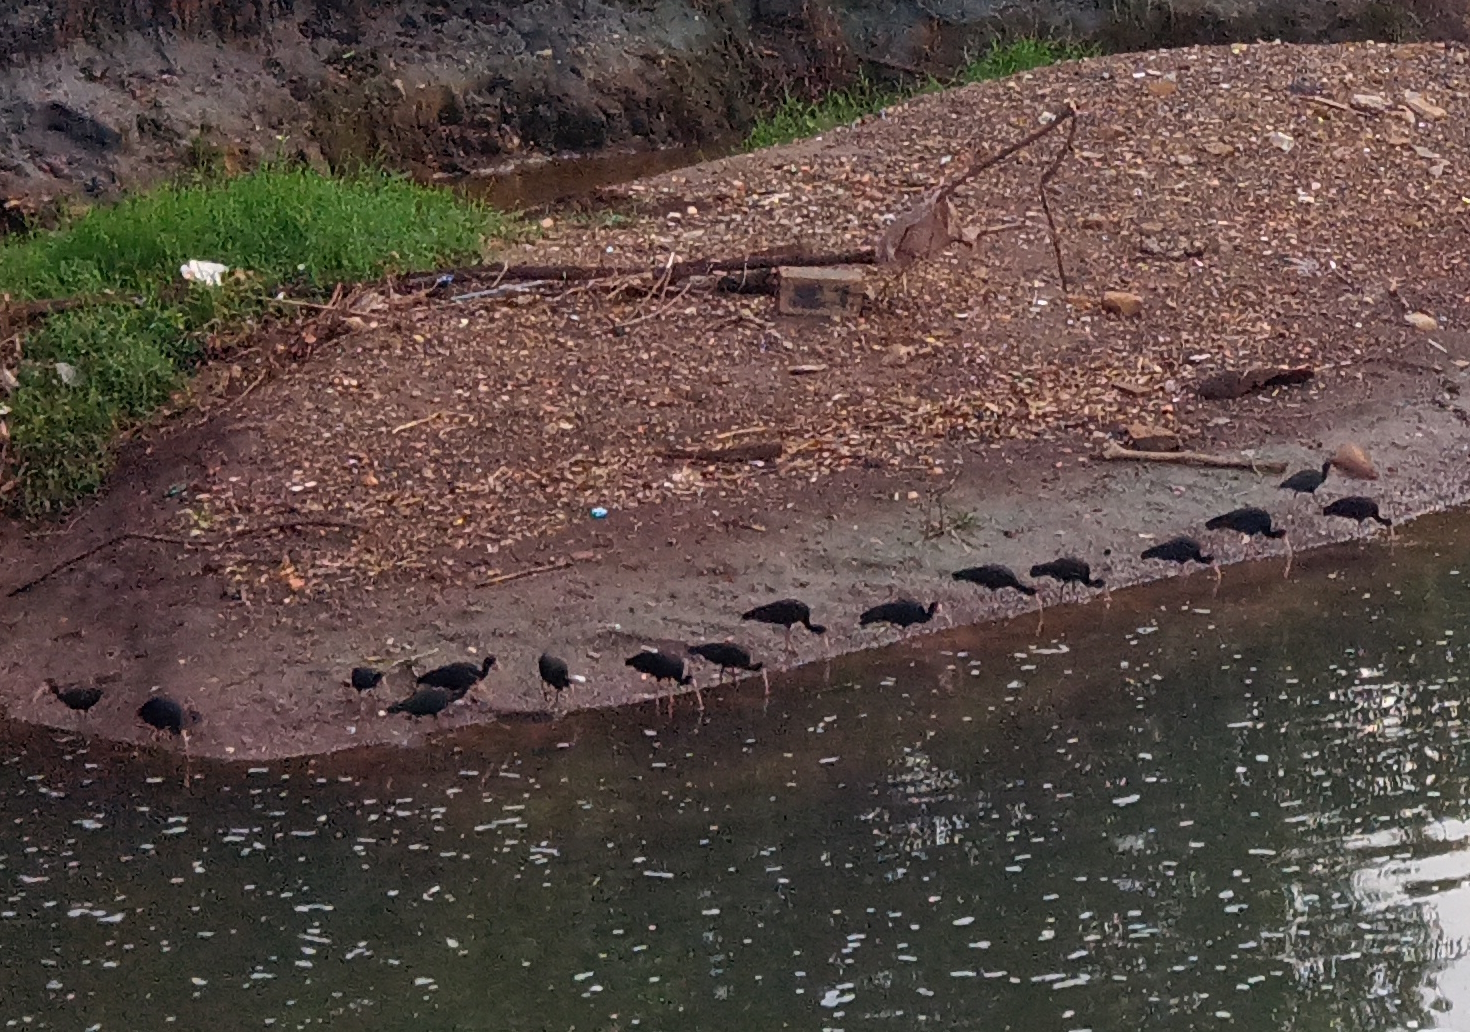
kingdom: Animalia
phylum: Chordata
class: Aves
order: Pelecaniformes
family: Threskiornithidae
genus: Phimosus
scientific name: Phimosus infuscatus
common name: Bare-faced ibis
